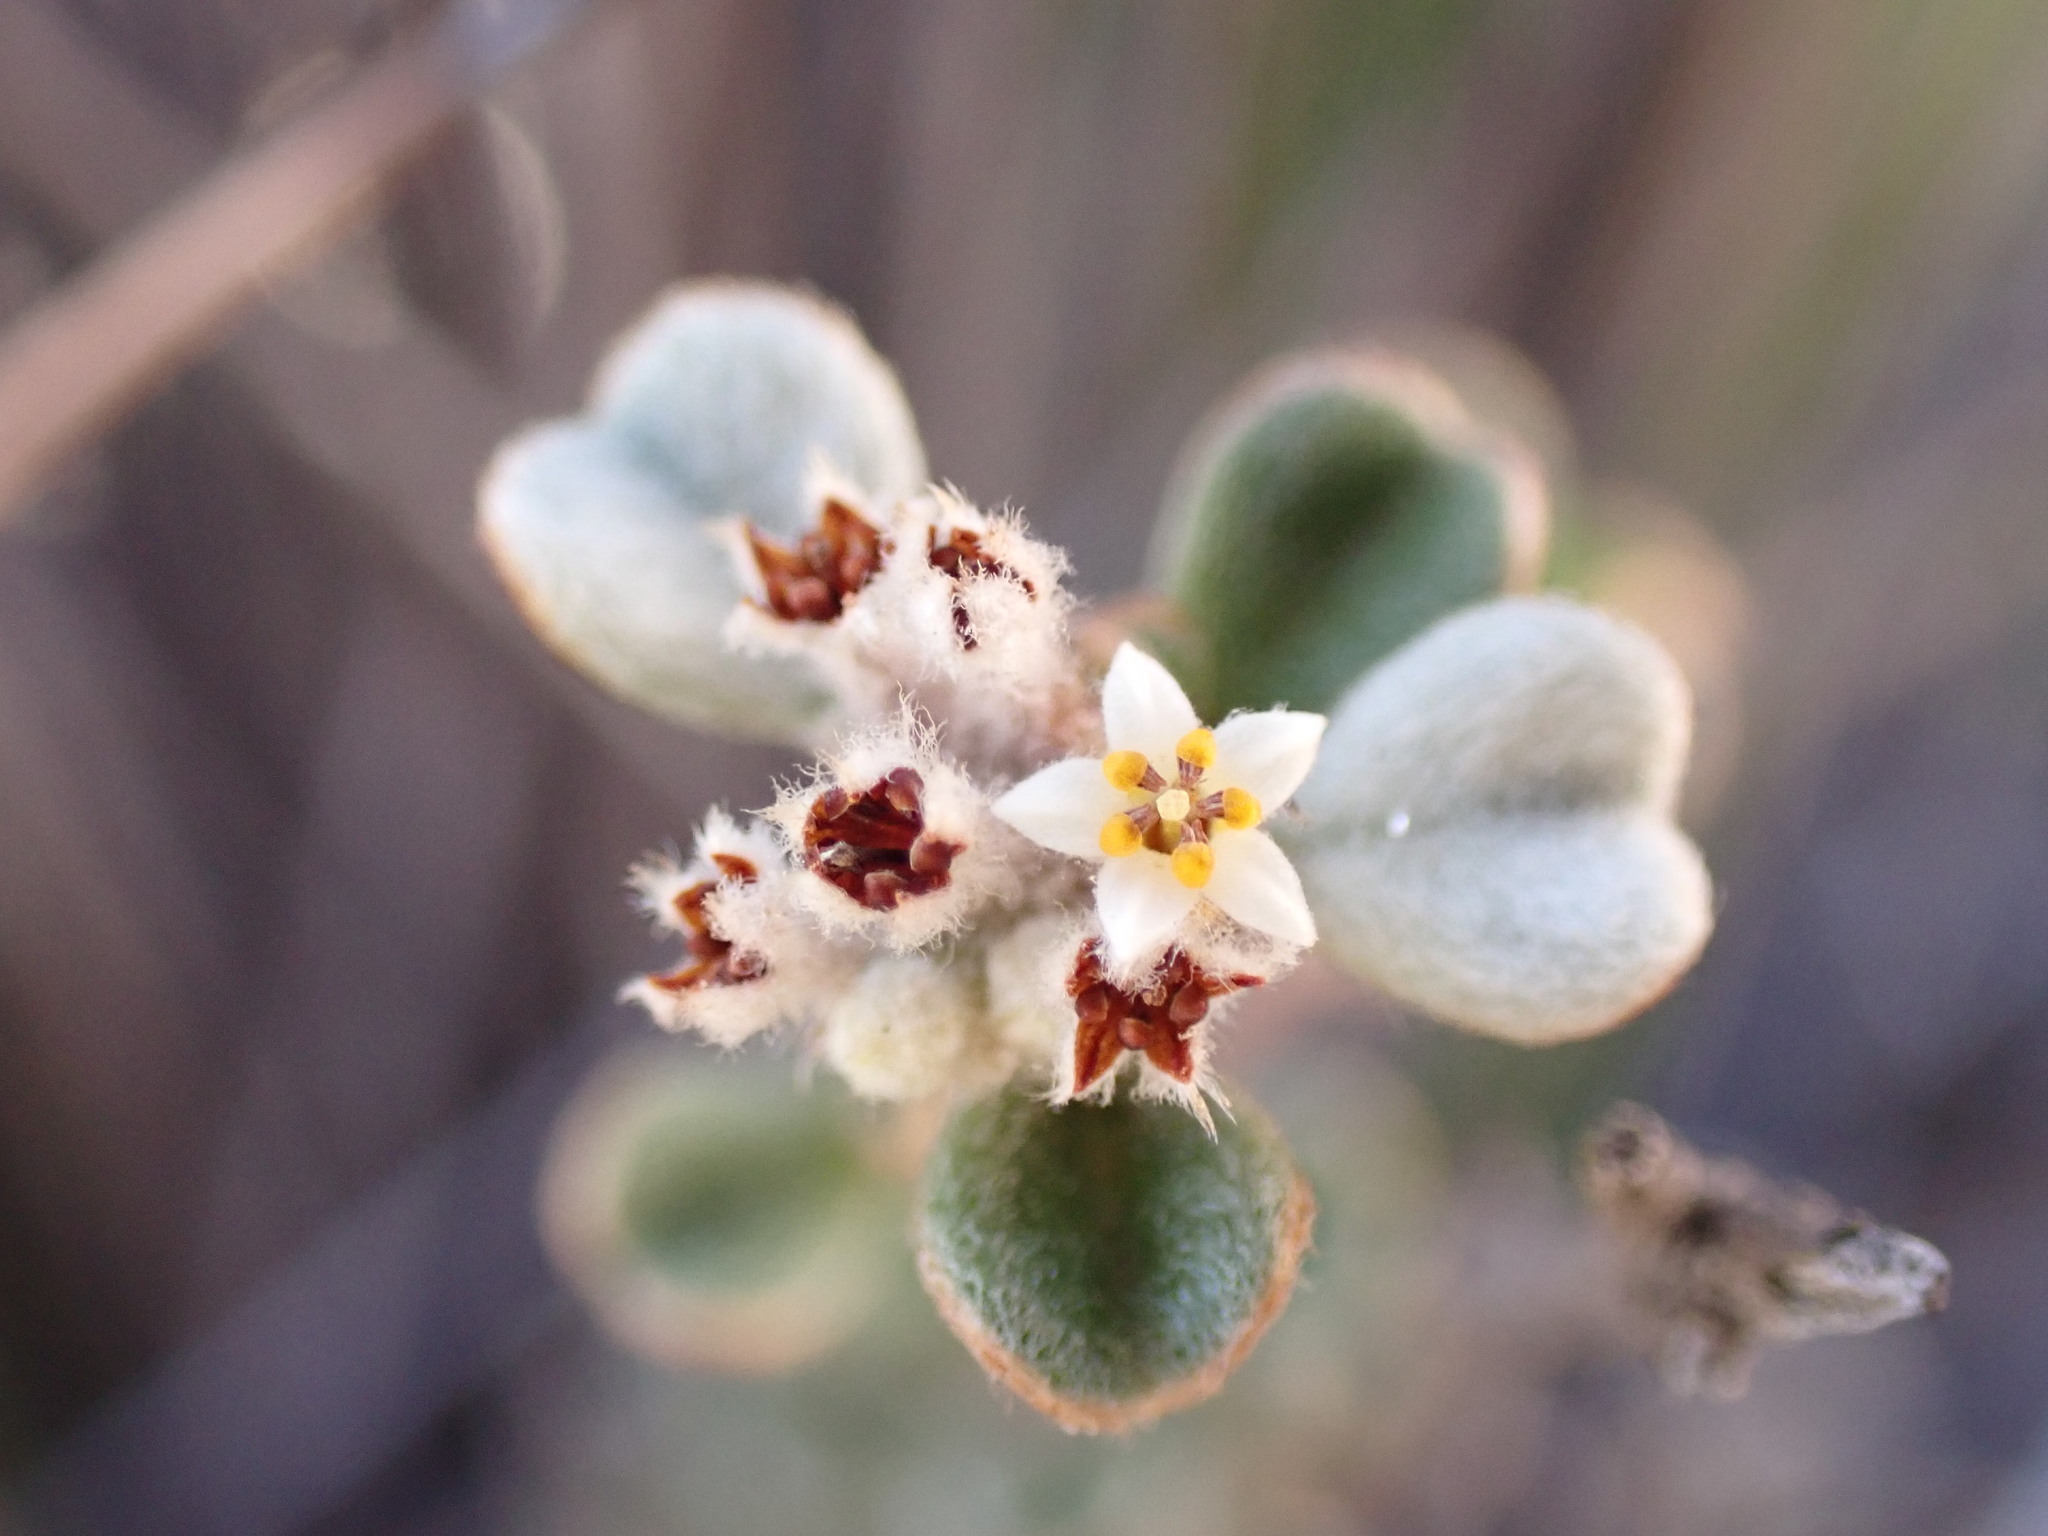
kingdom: Plantae
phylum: Tracheophyta
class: Magnoliopsida
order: Rosales
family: Rhamnaceae
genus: Cryptandra
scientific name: Cryptandra leucophracta
